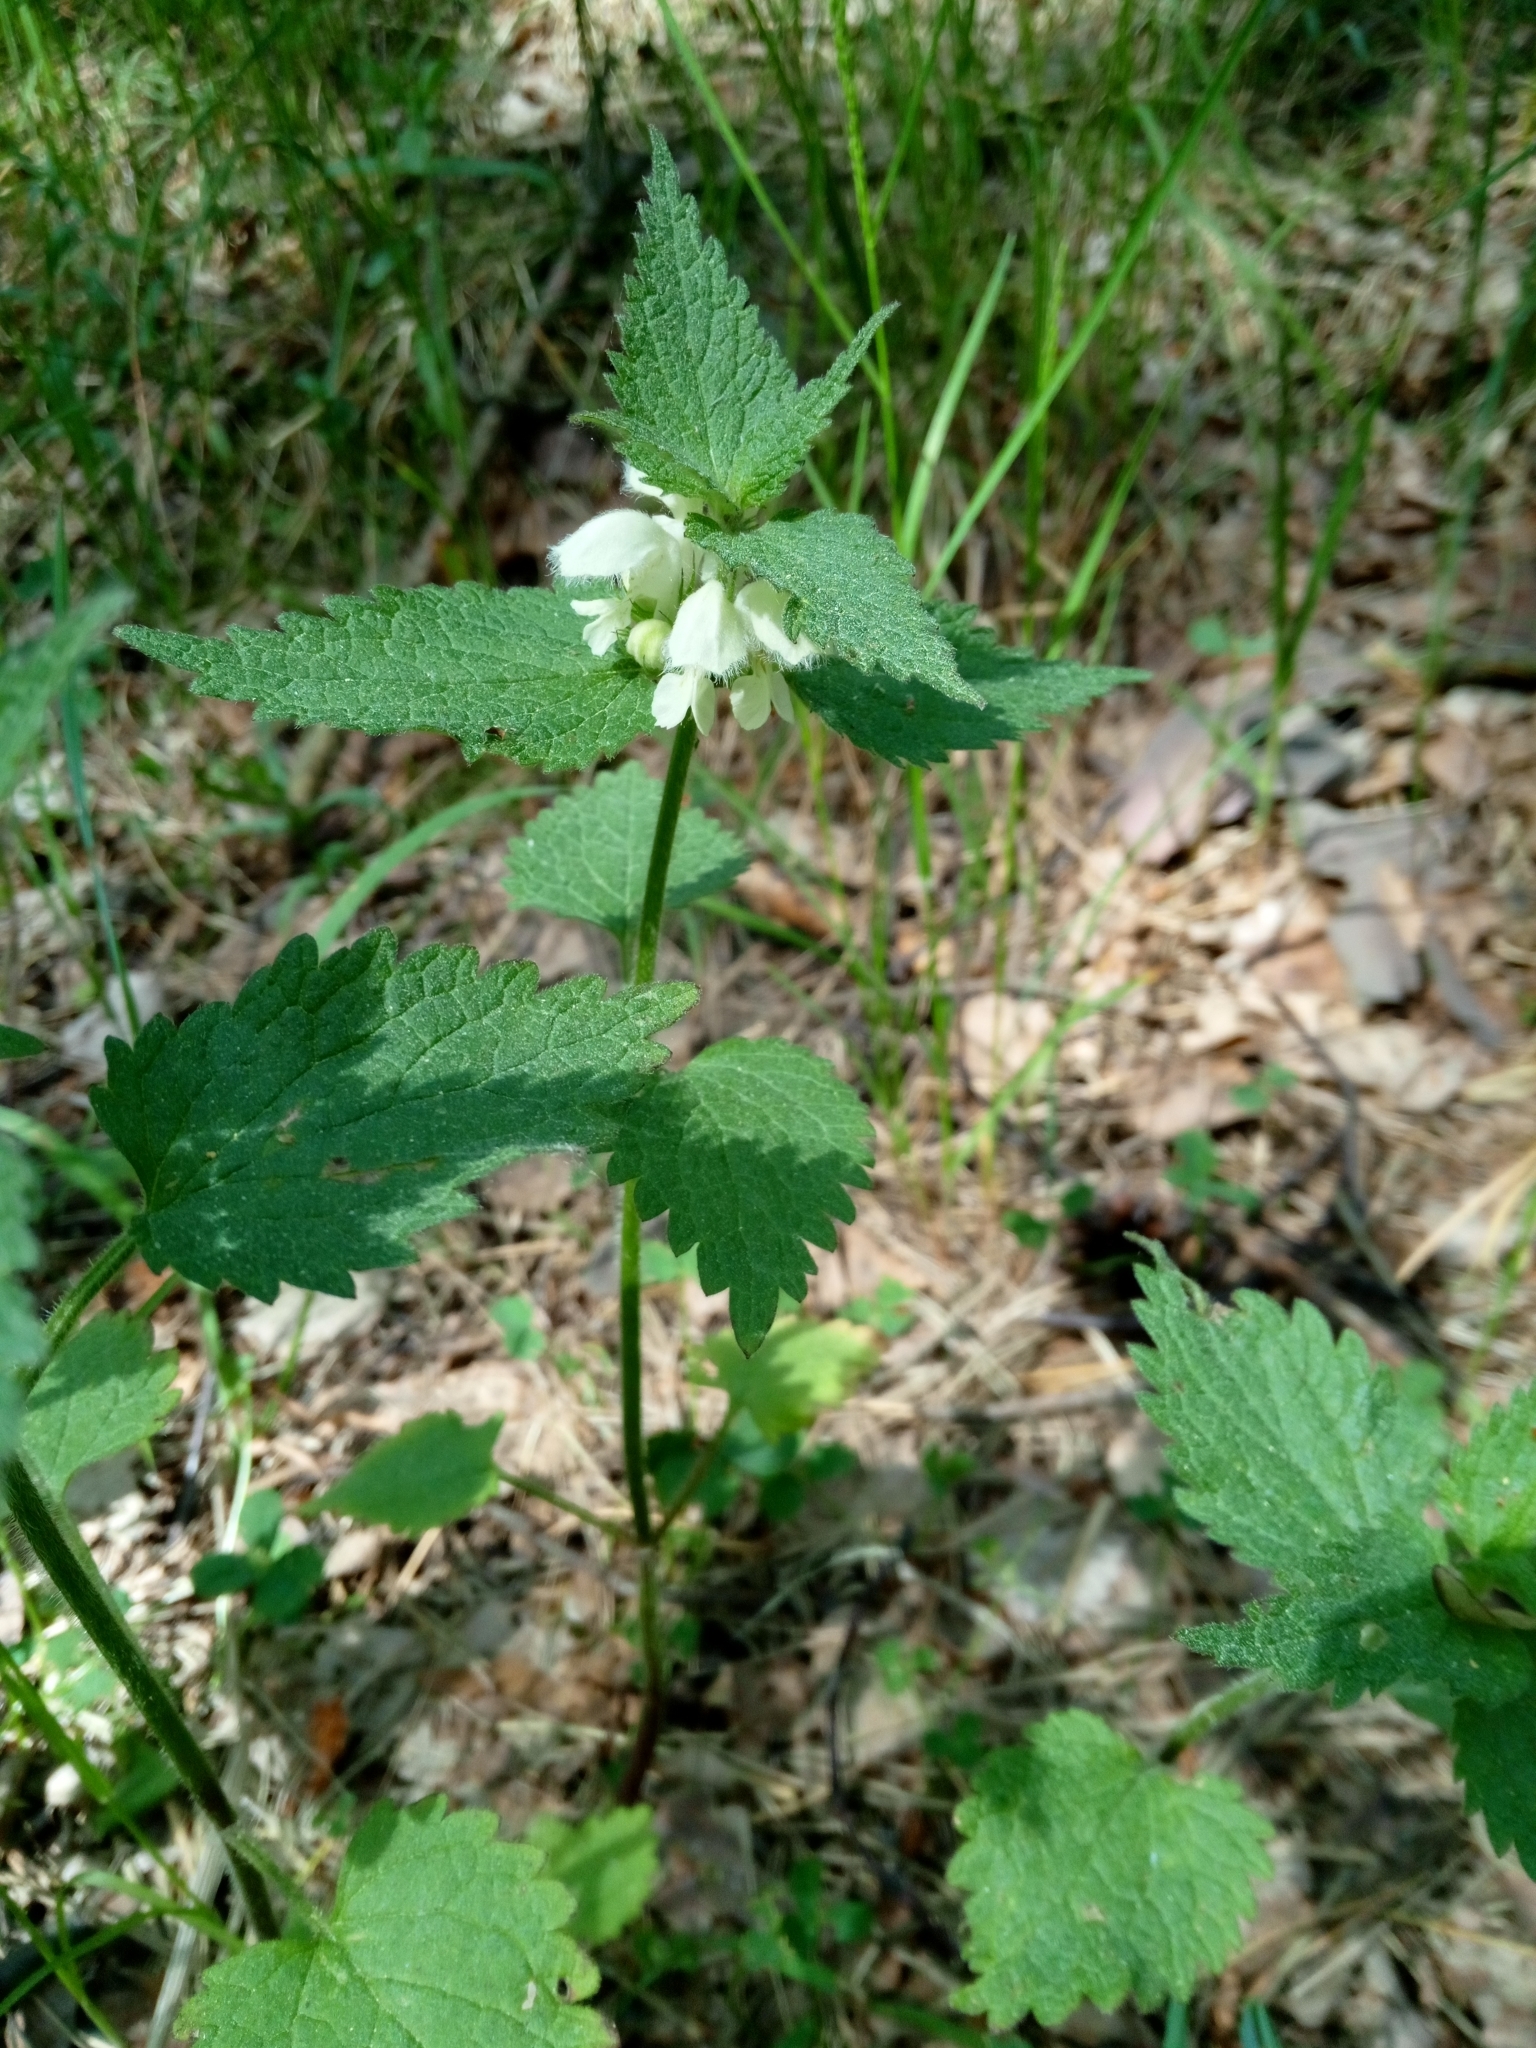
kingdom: Plantae
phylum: Tracheophyta
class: Magnoliopsida
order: Lamiales
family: Lamiaceae
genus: Lamium
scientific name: Lamium album
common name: White dead-nettle
